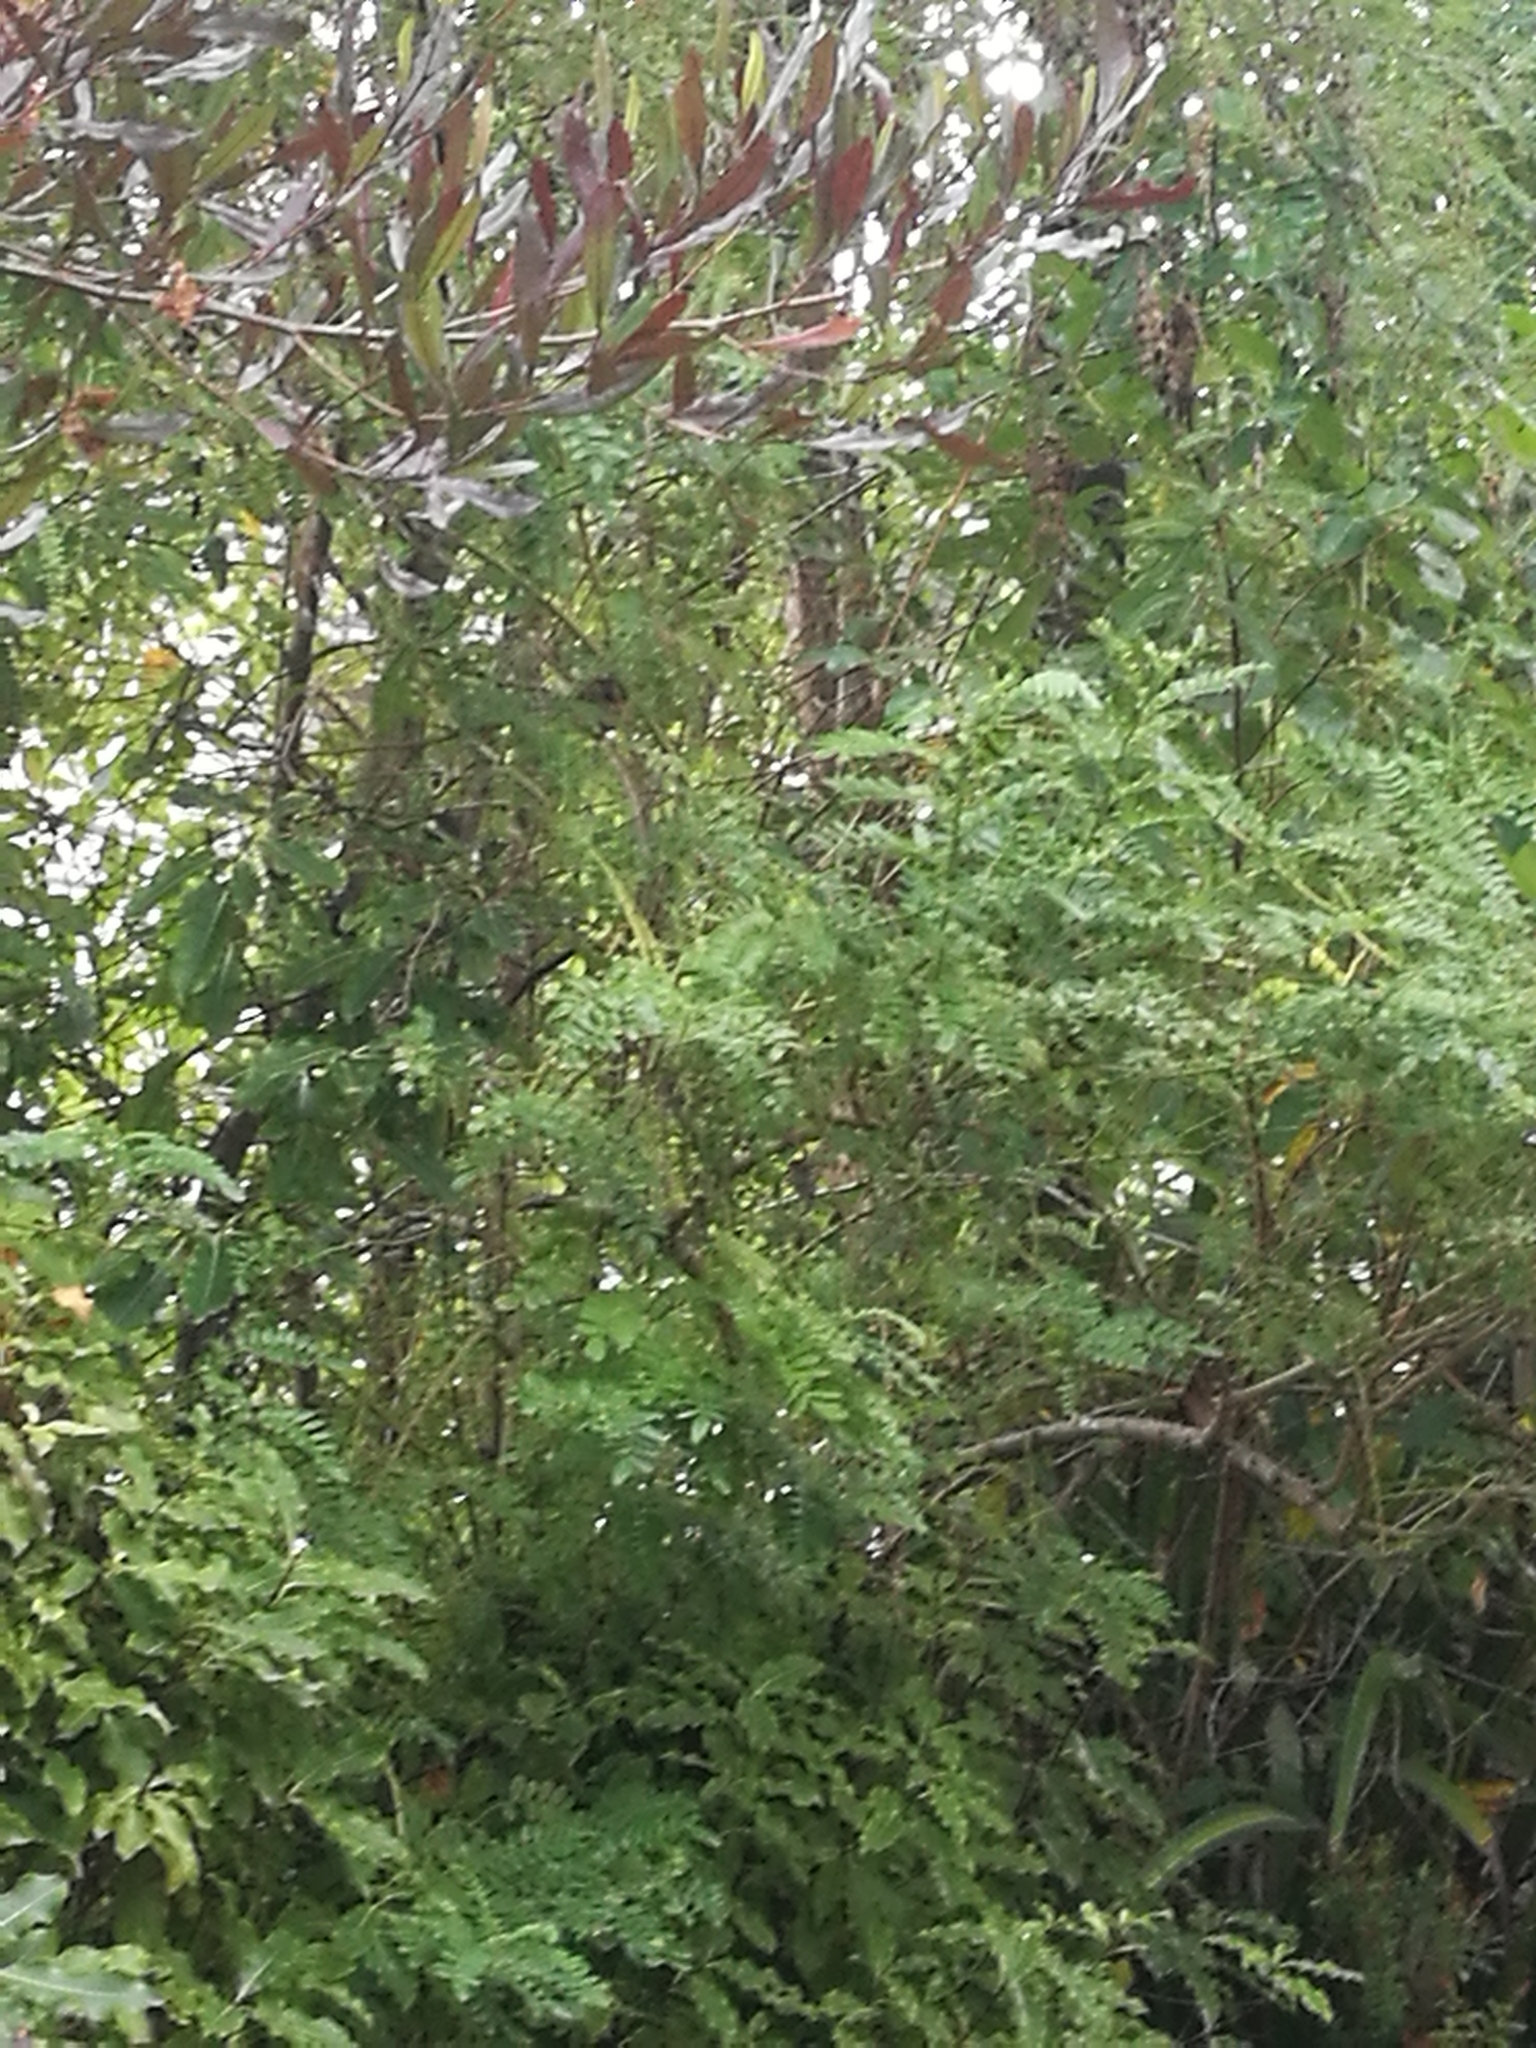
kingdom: Animalia
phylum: Chordata
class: Aves
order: Passeriformes
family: Rhipiduridae
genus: Rhipidura
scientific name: Rhipidura fuliginosa
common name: New zealand fantail
